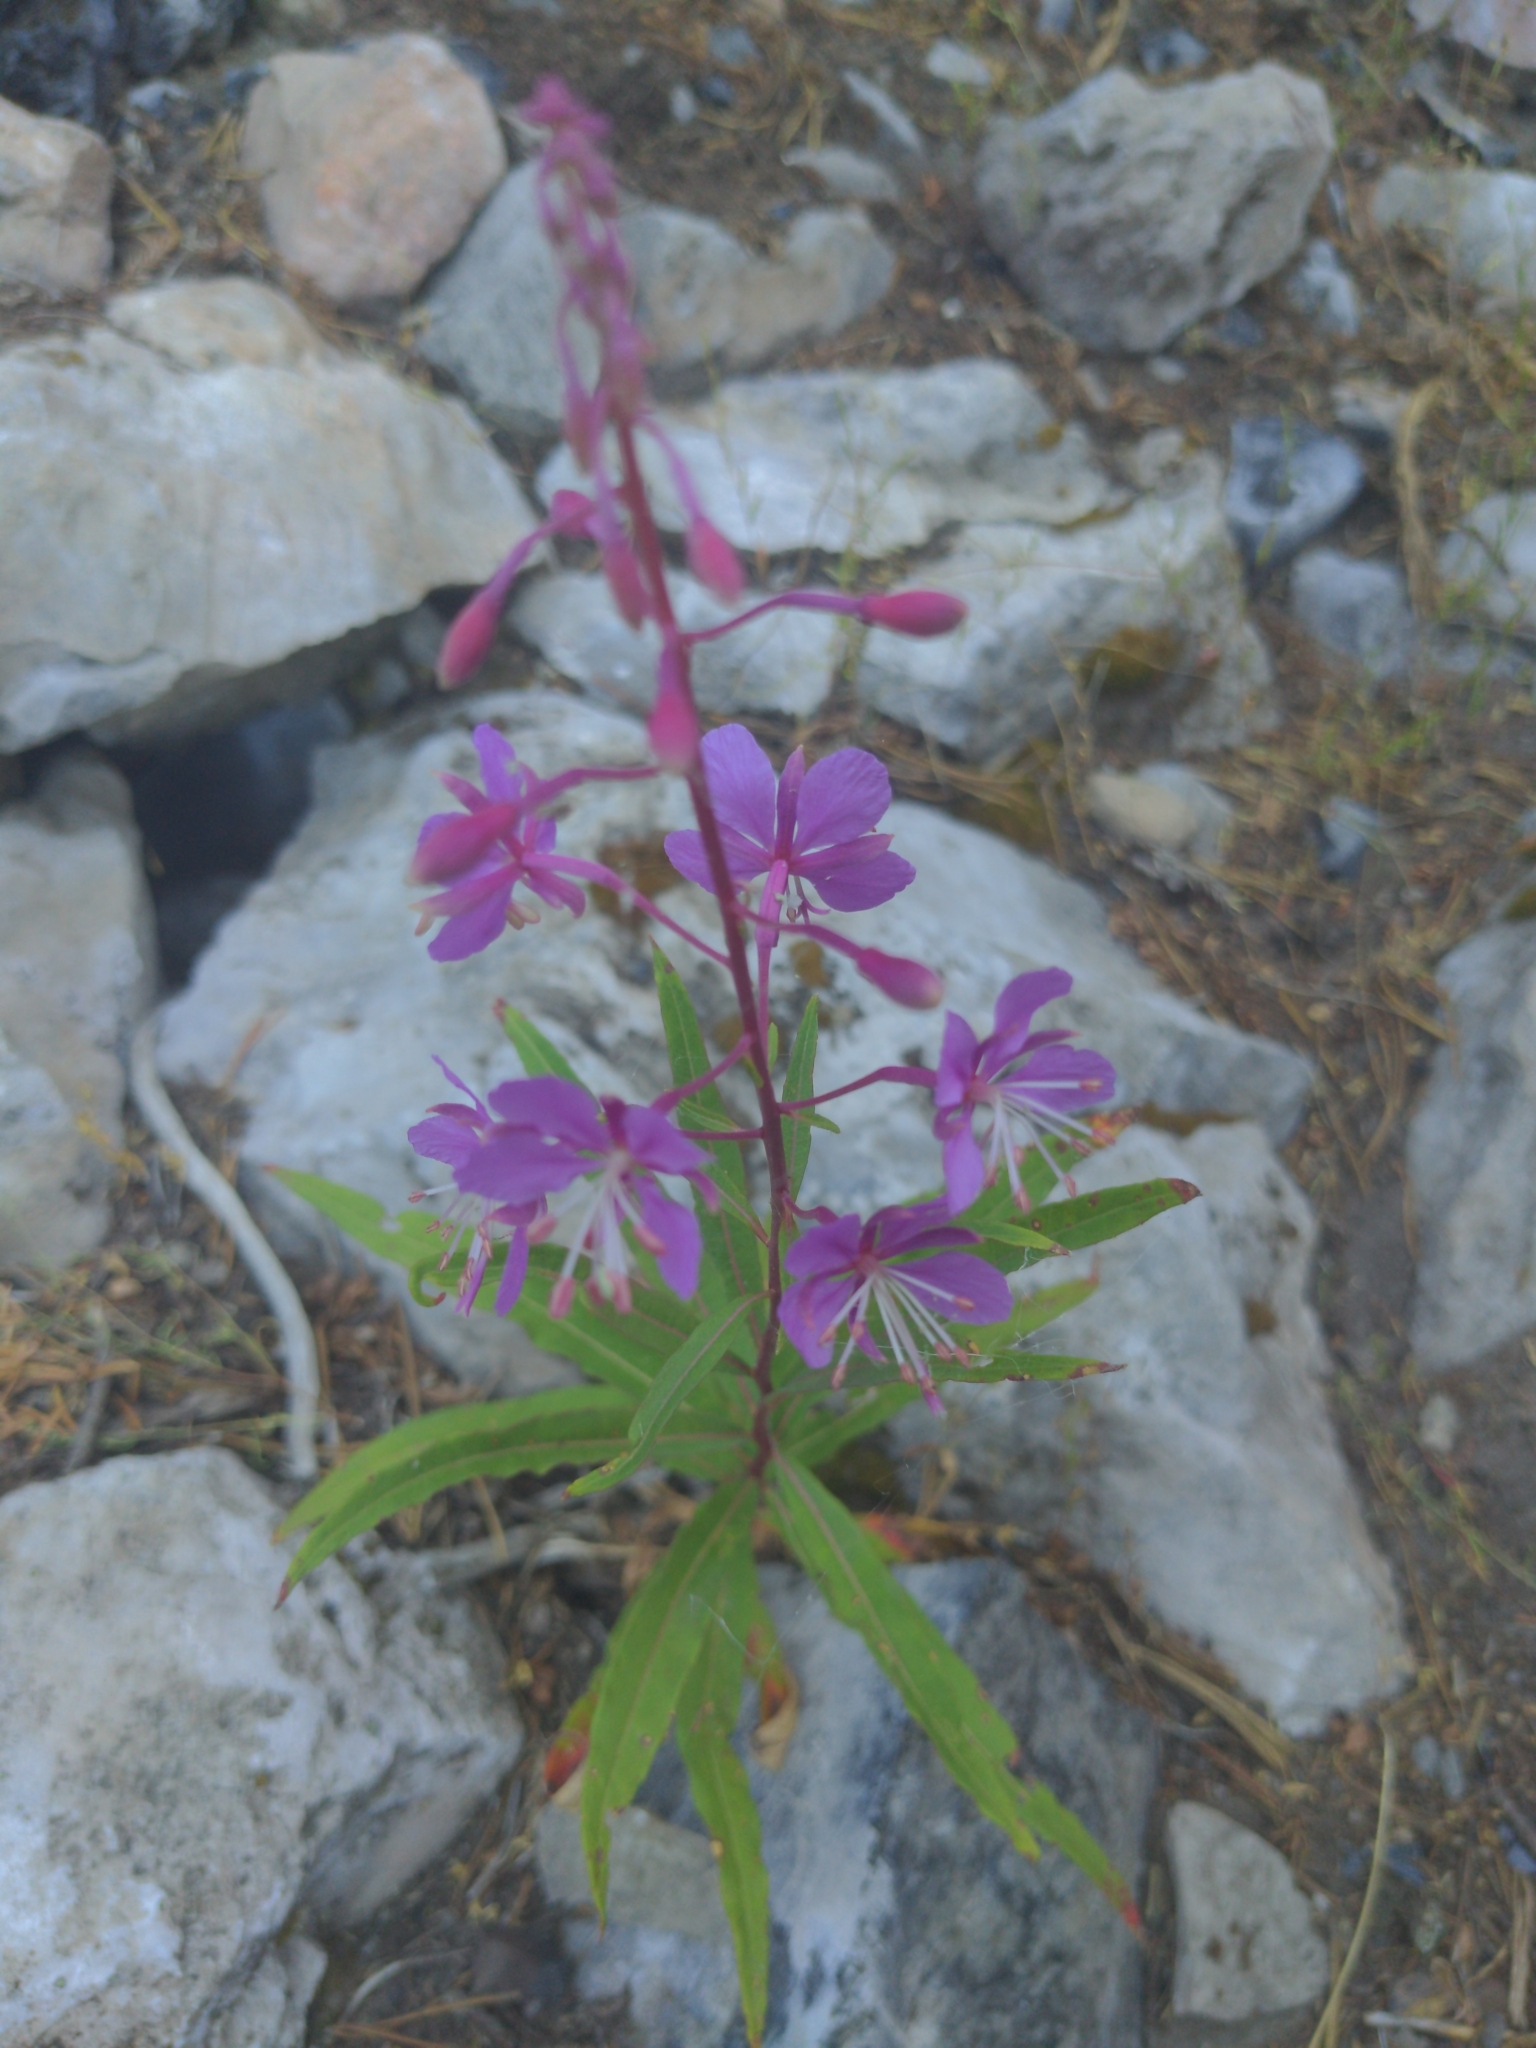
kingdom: Plantae
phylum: Tracheophyta
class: Magnoliopsida
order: Myrtales
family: Onagraceae
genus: Chamaenerion
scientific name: Chamaenerion angustifolium
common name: Fireweed
